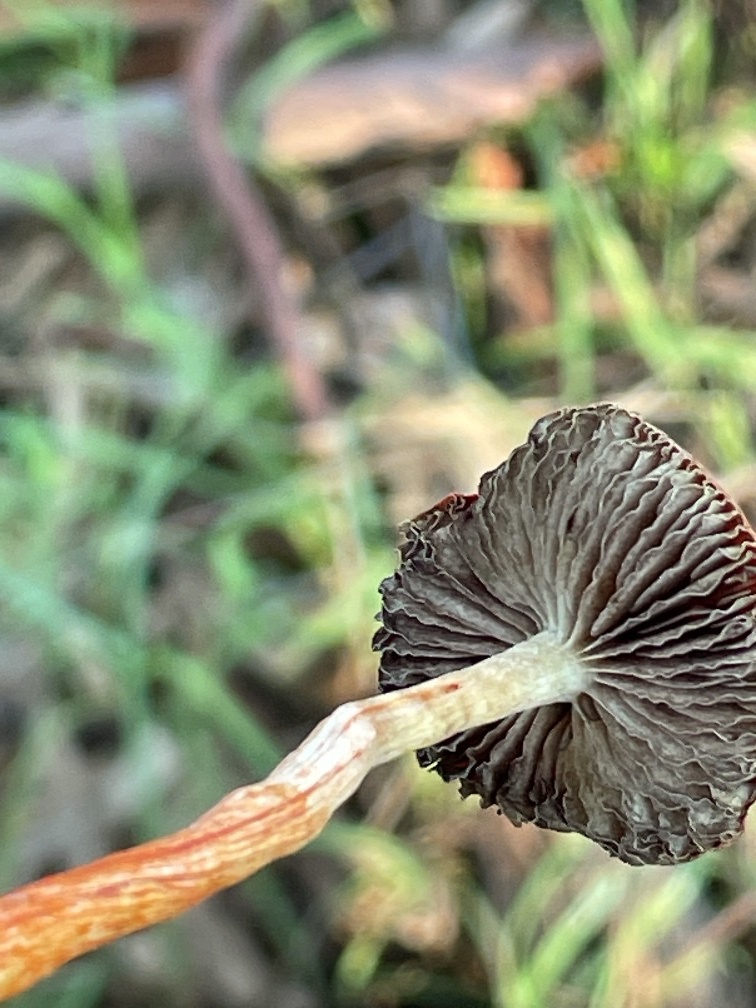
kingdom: Fungi
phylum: Basidiomycota
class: Agaricomycetes
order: Agaricales
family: Strophariaceae
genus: Leratiomyces
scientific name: Leratiomyces ceres
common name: Redlead roundhead
